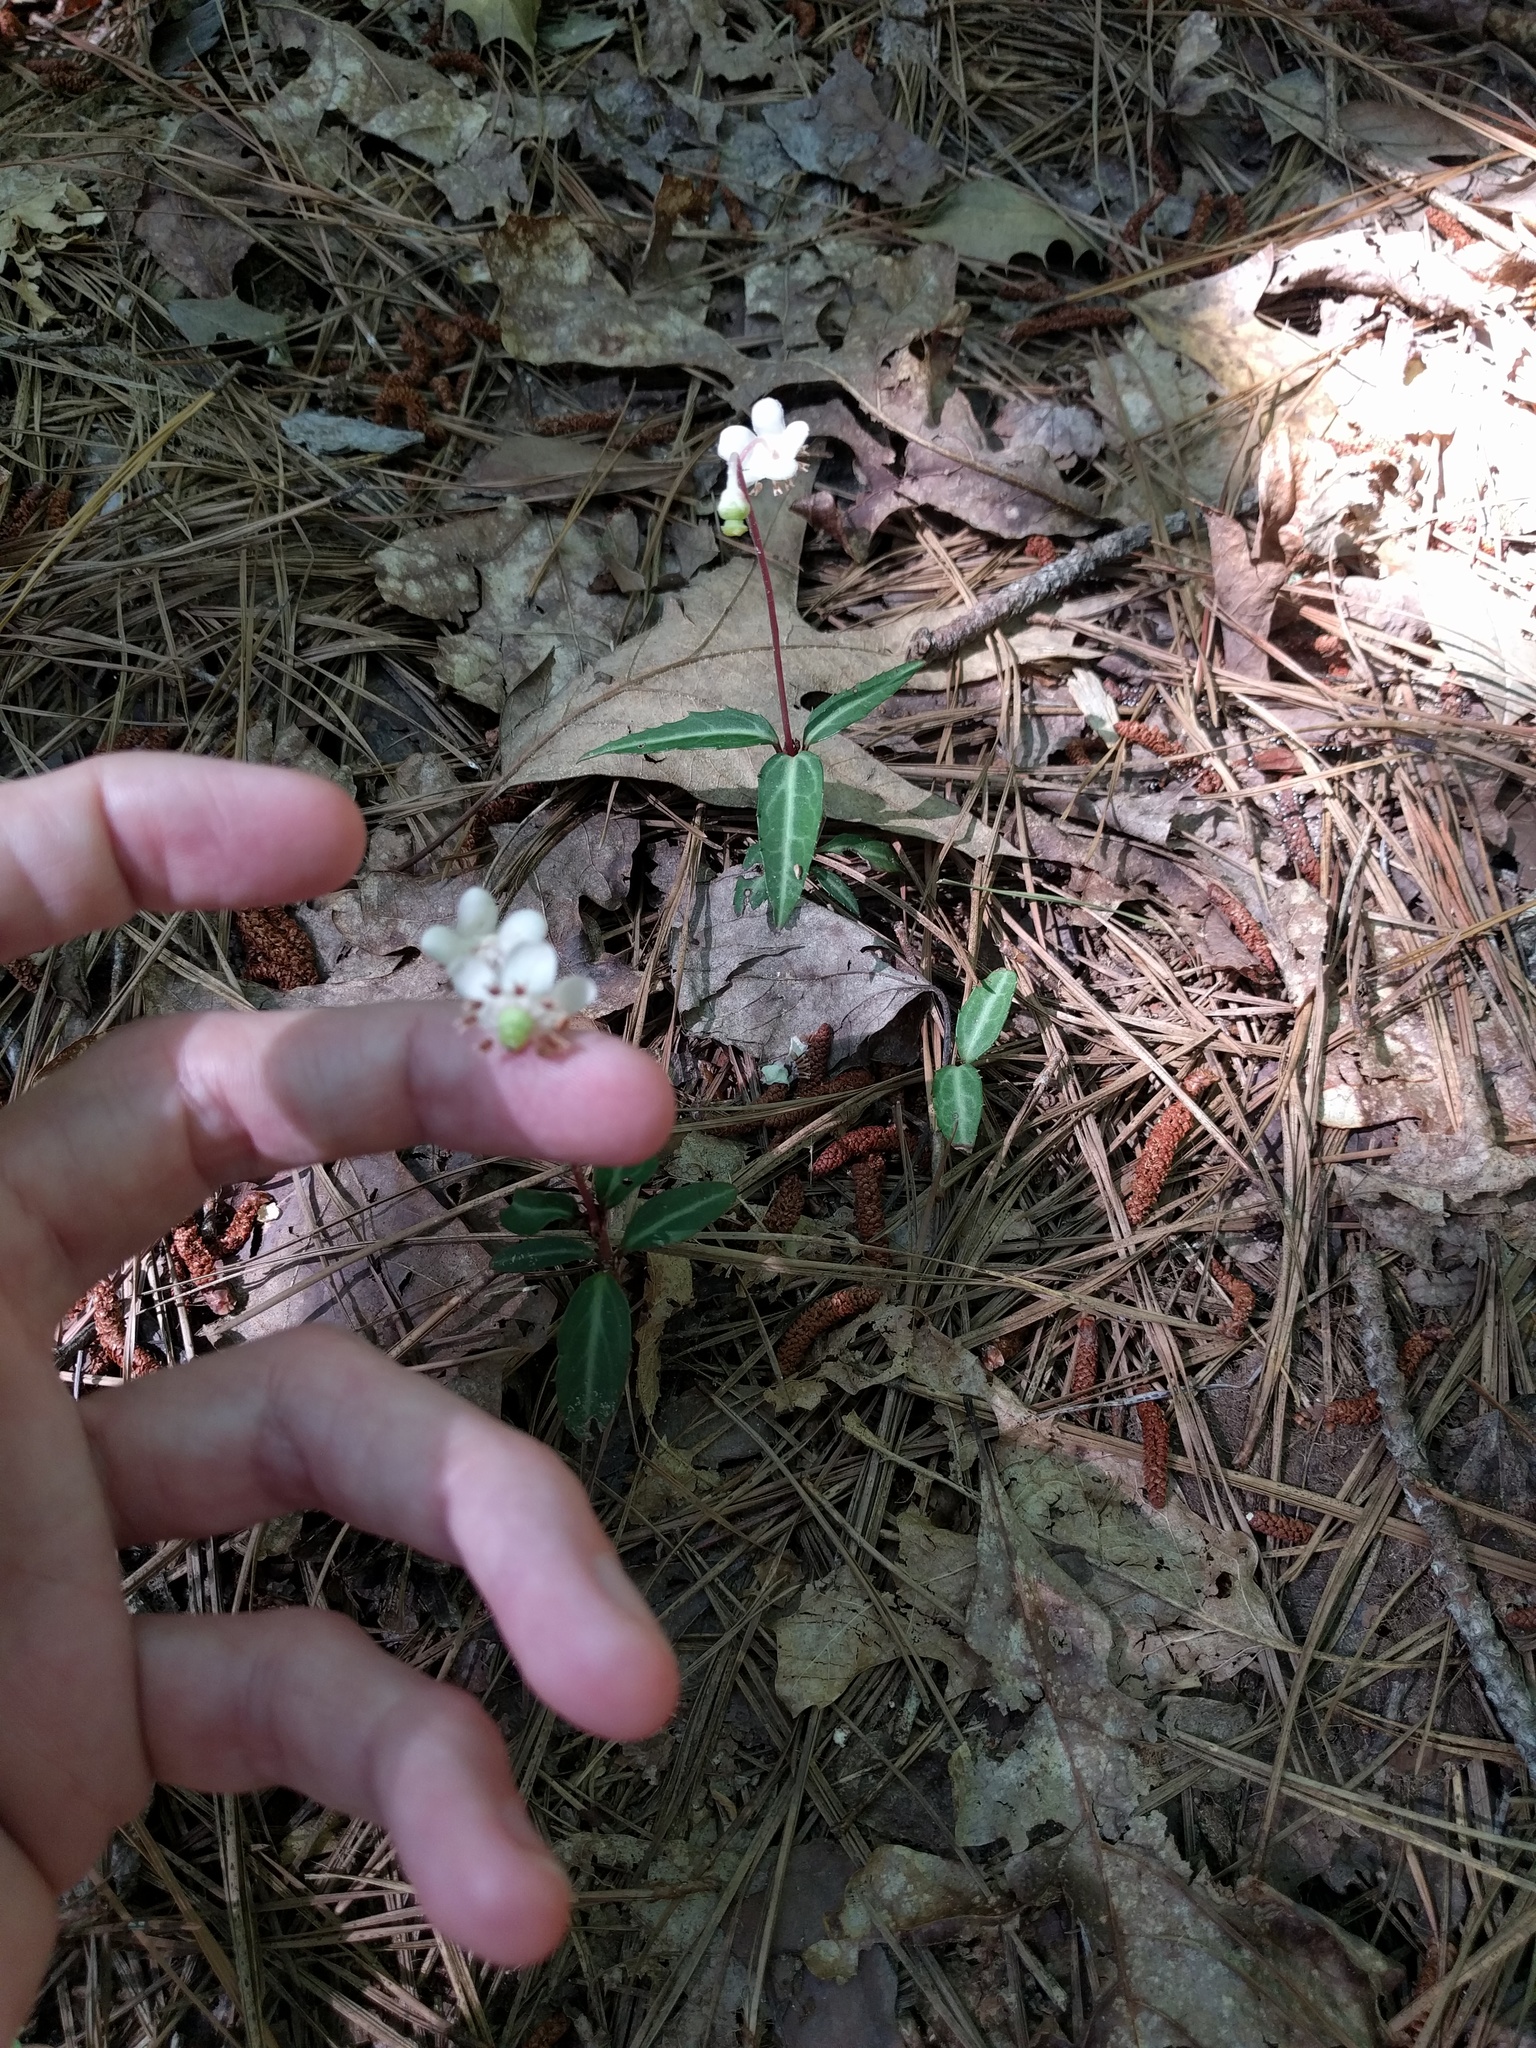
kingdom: Plantae
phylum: Tracheophyta
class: Magnoliopsida
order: Ericales
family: Ericaceae
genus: Chimaphila
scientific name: Chimaphila maculata
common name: Spotted pipsissewa
